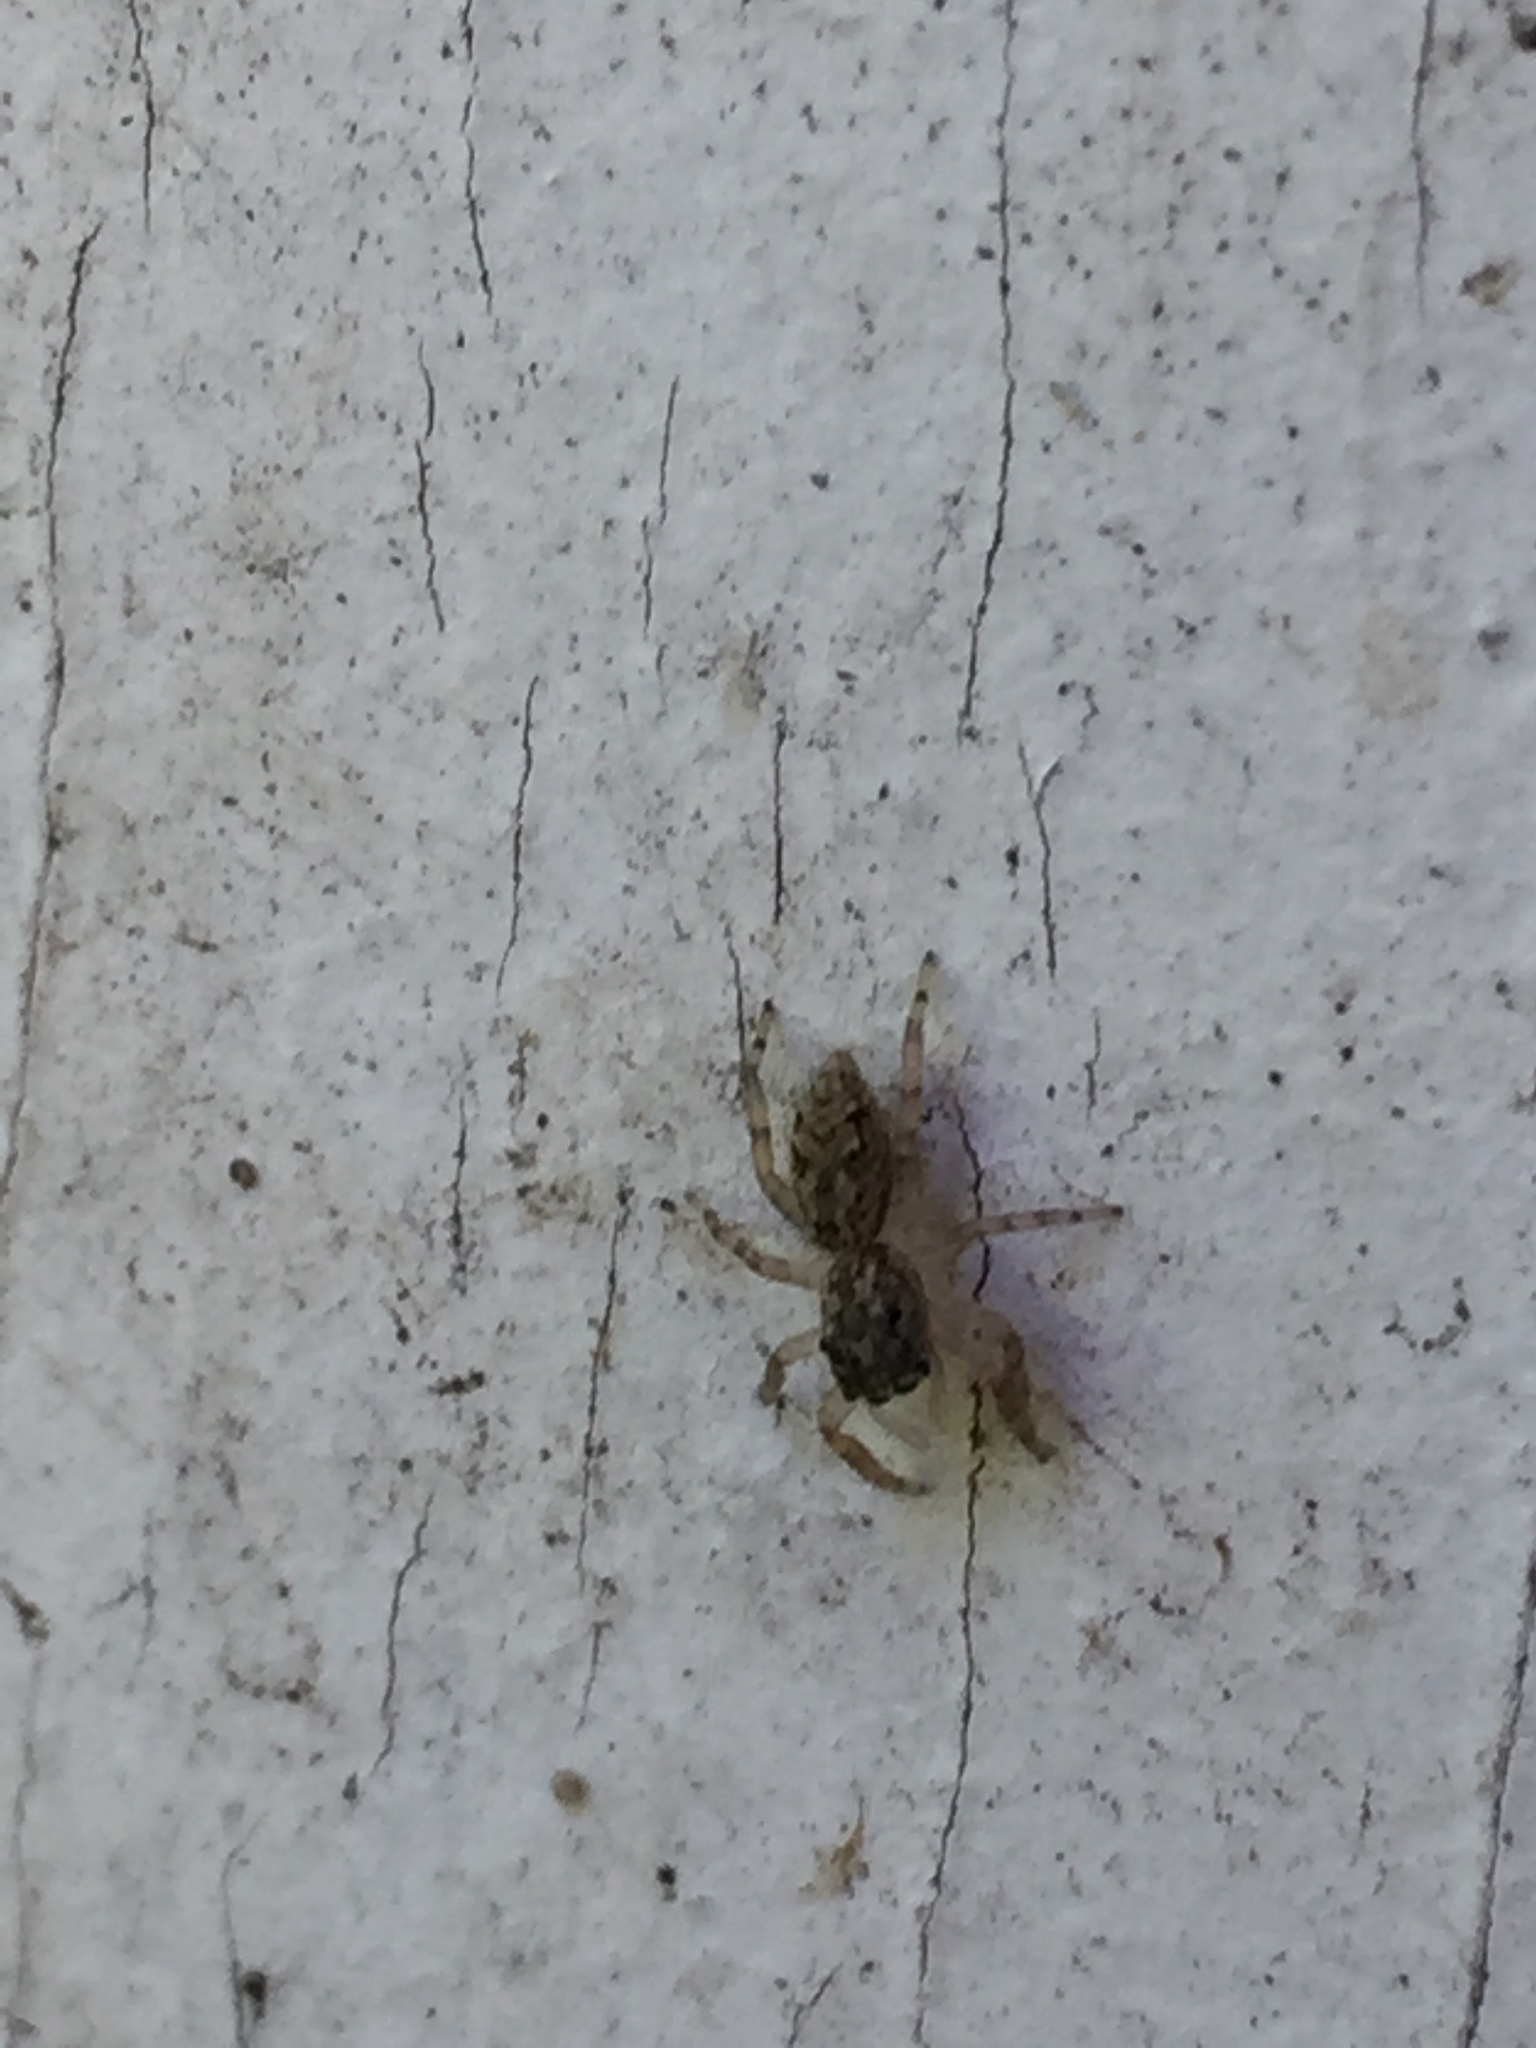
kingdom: Animalia
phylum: Arthropoda
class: Arachnida
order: Araneae
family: Salticidae
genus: Platycryptus
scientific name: Platycryptus undatus
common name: Tan jumping spider
